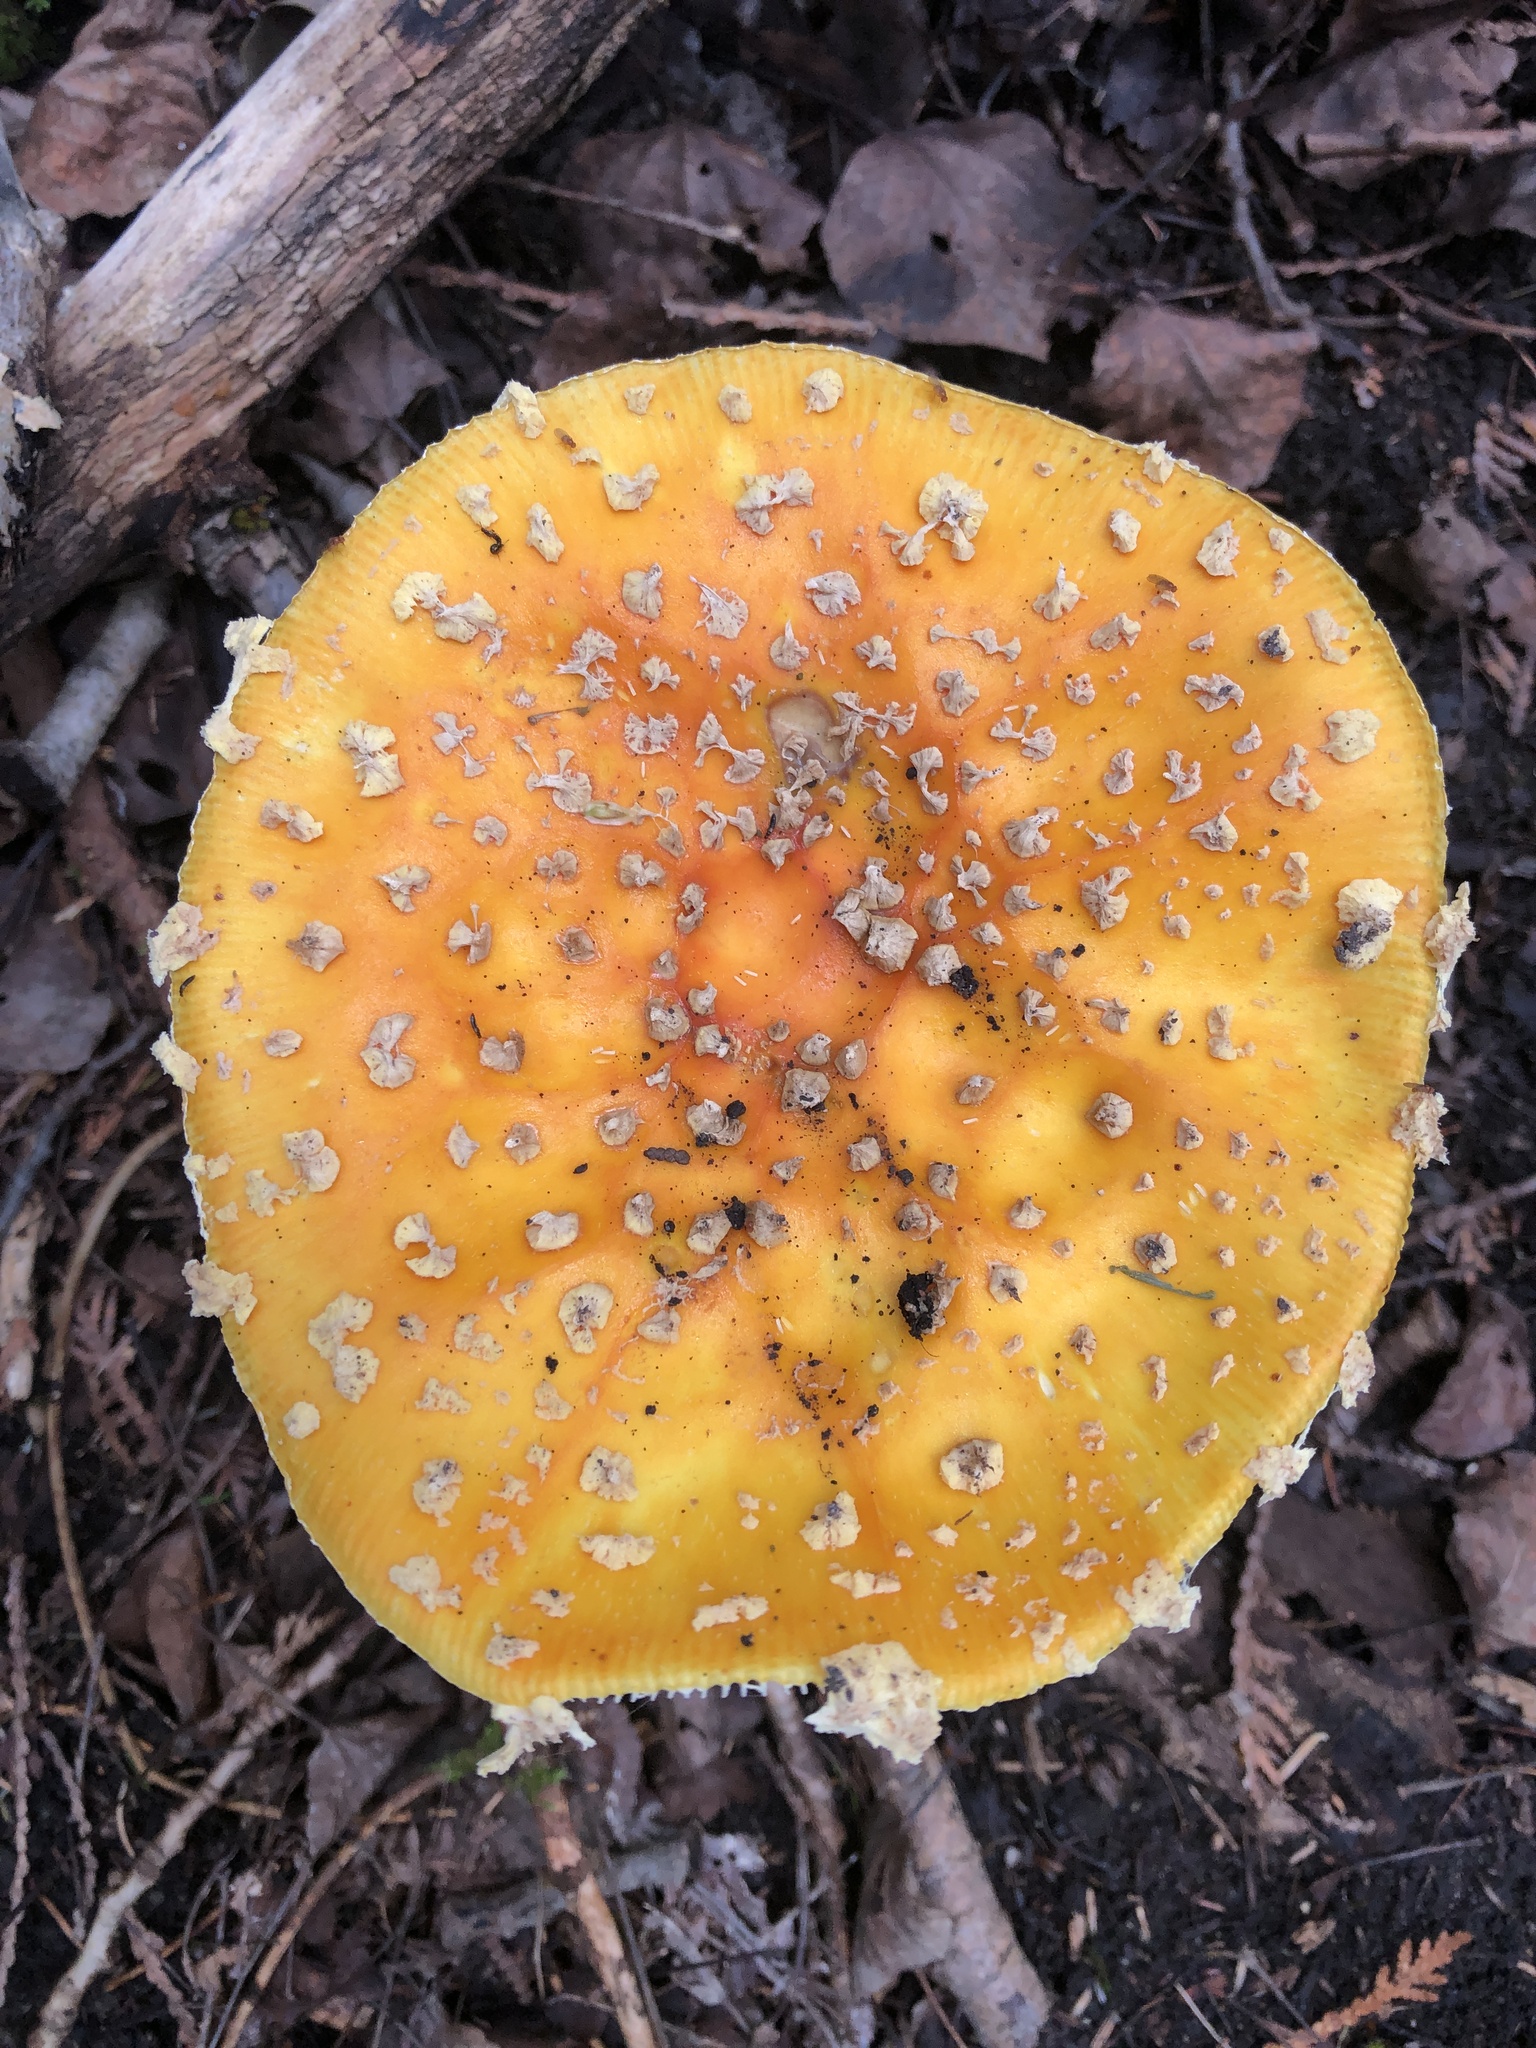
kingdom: Fungi
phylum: Basidiomycota
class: Agaricomycetes
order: Agaricales
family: Amanitaceae
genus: Amanita
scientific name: Amanita muscaria
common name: Fly agaric
